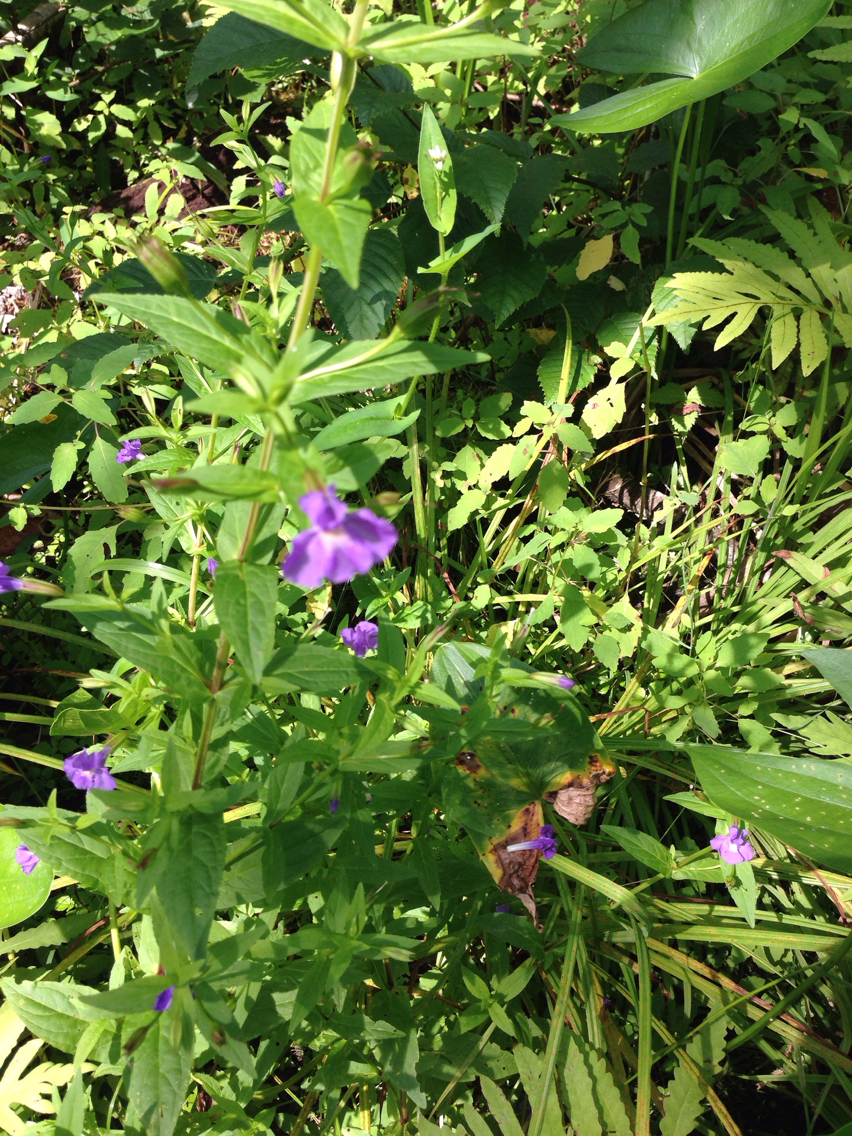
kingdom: Plantae
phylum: Tracheophyta
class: Magnoliopsida
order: Lamiales
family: Phrymaceae
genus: Mimulus
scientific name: Mimulus ringens
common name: Allegheny monkeyflower
